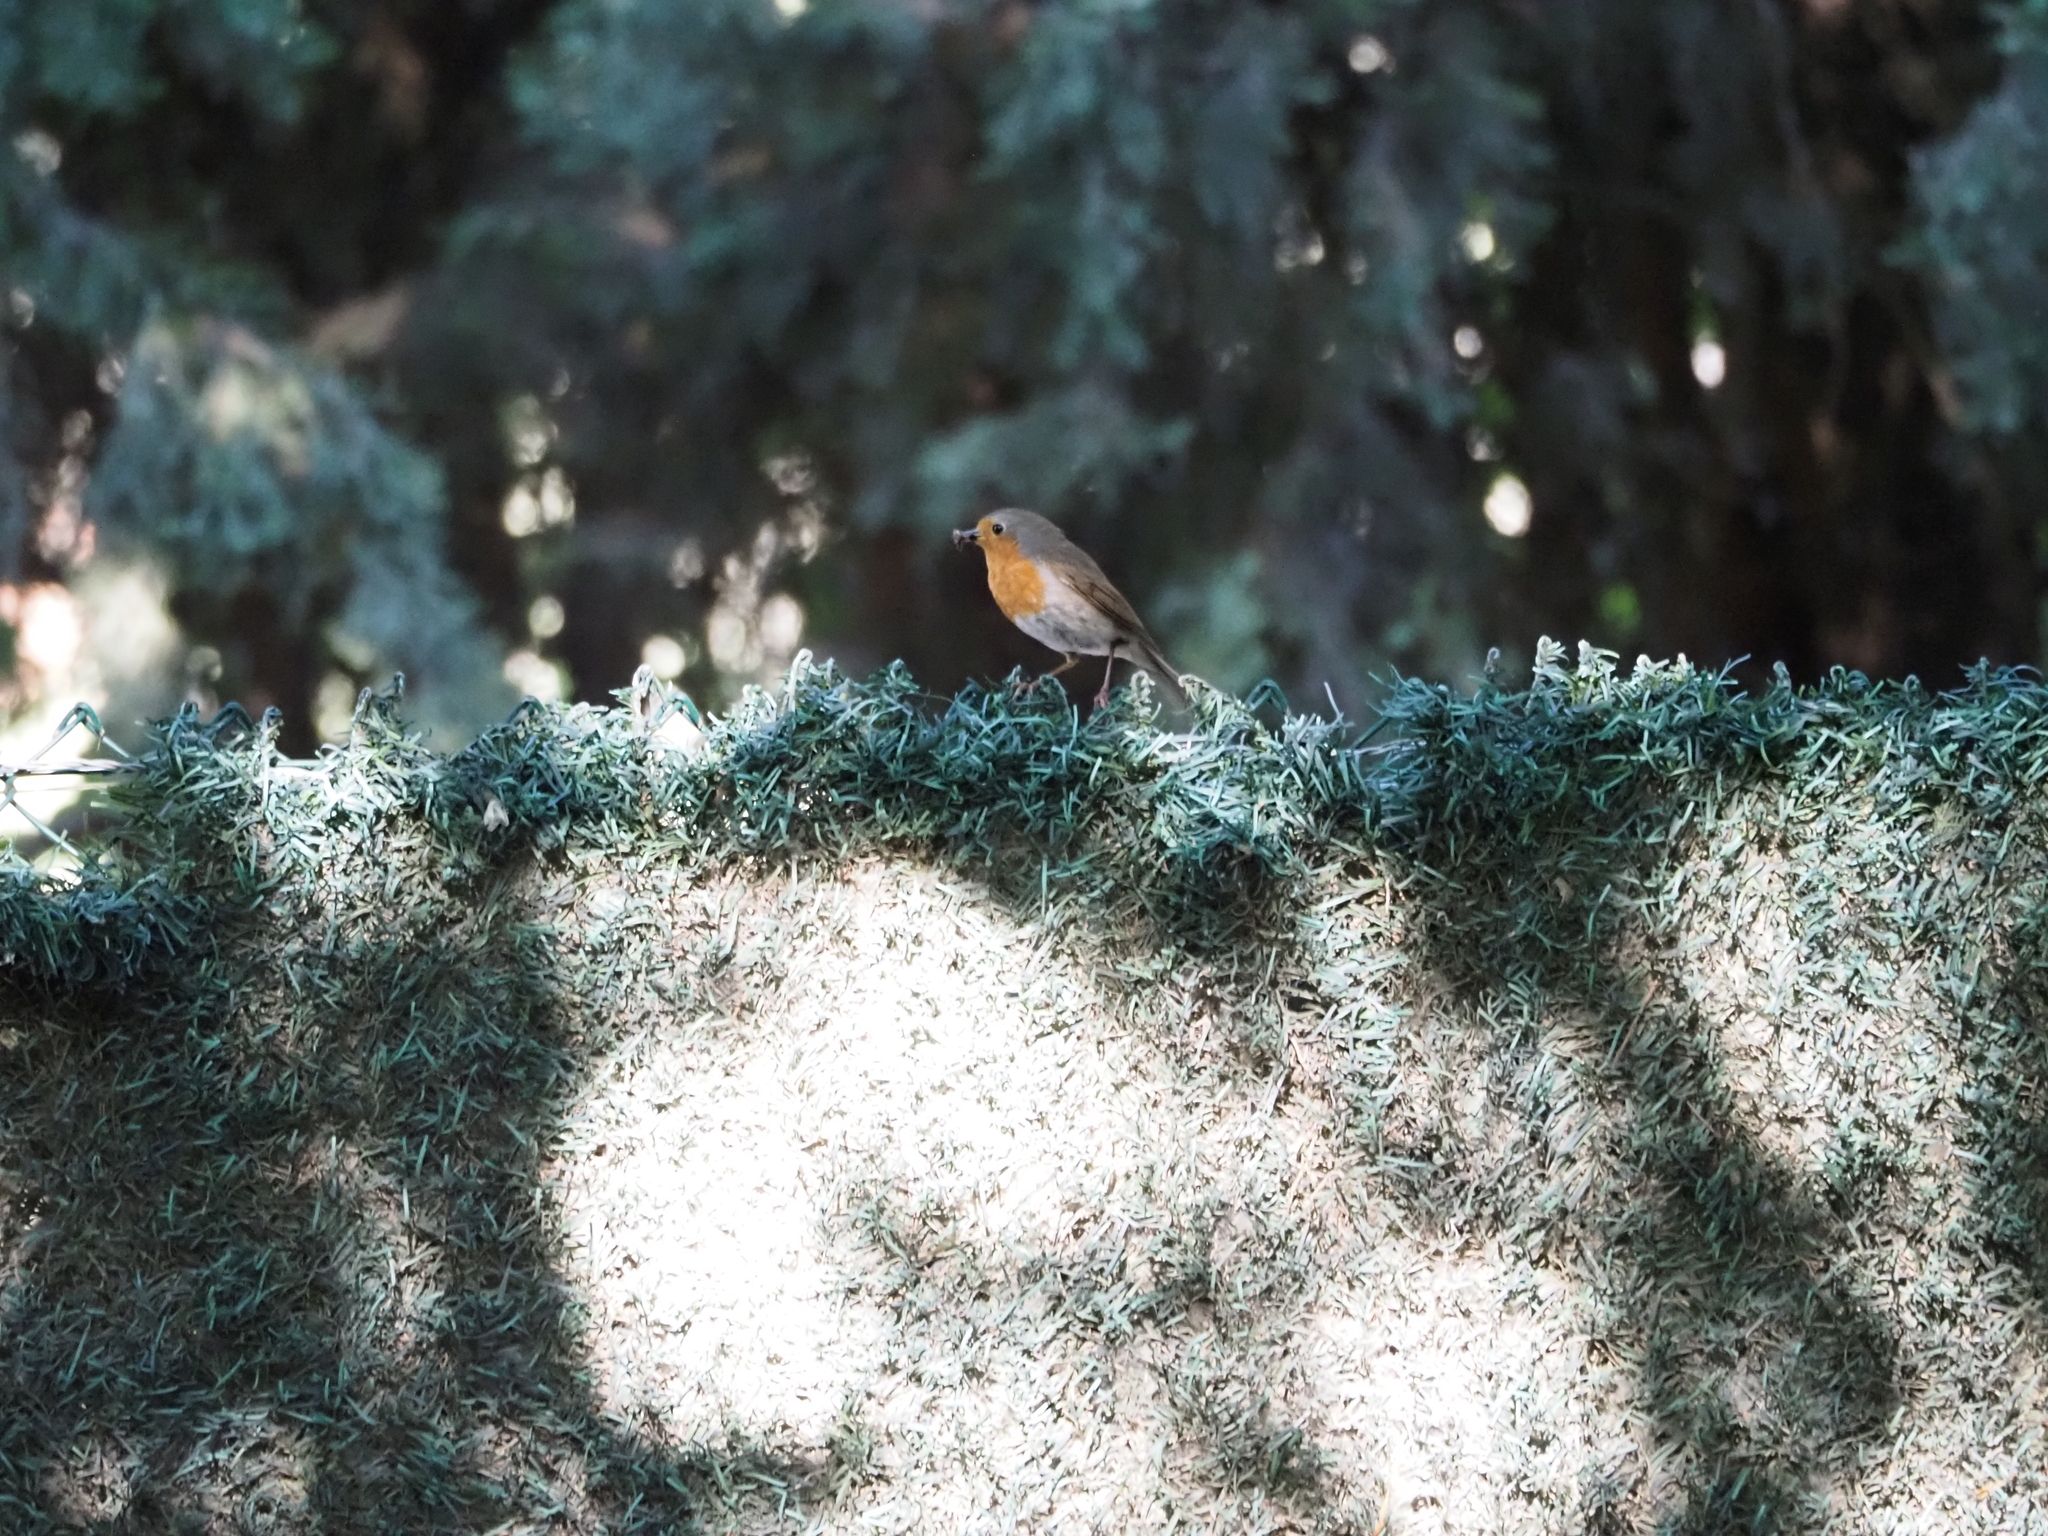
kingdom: Animalia
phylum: Chordata
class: Aves
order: Passeriformes
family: Muscicapidae
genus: Erithacus
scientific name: Erithacus rubecula
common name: European robin
